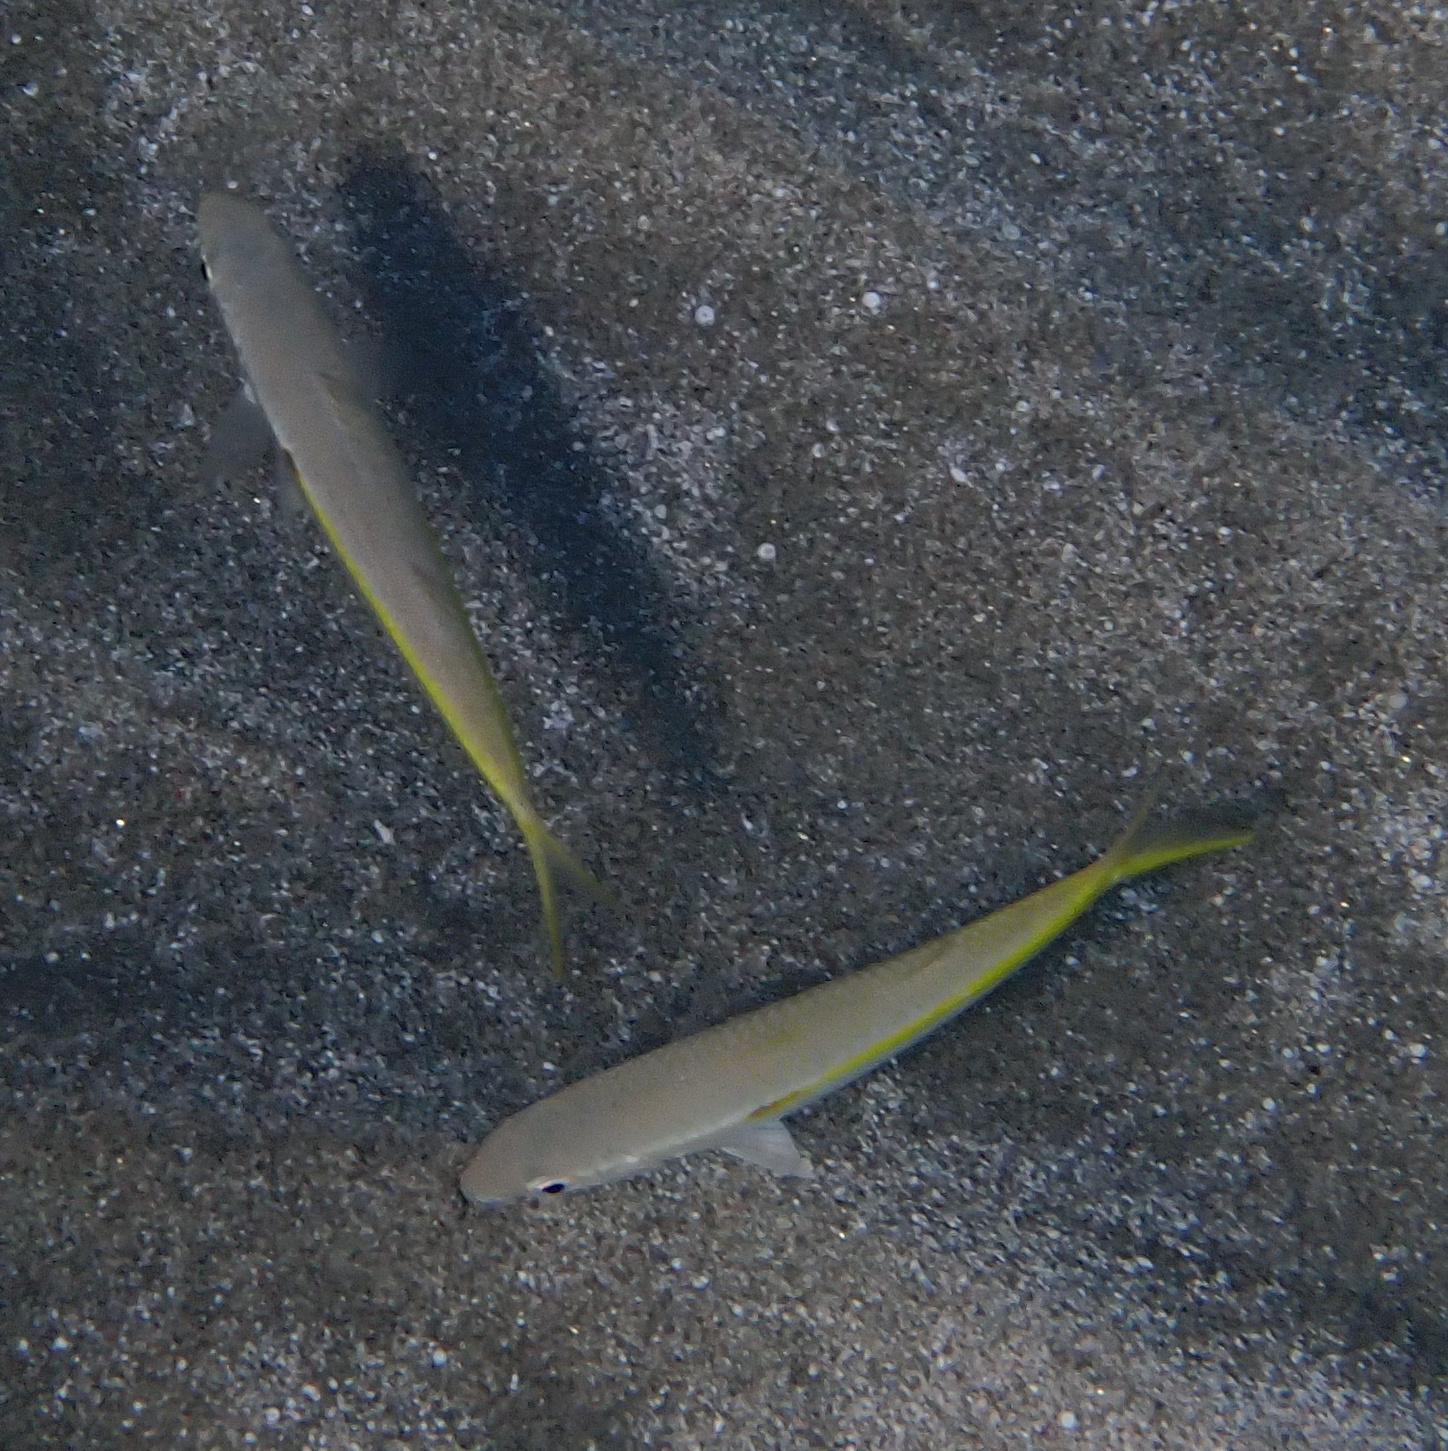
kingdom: Animalia
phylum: Chordata
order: Perciformes
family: Mullidae
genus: Mulloidichthys
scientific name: Mulloidichthys flavolineatus
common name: Yellowstripe goatfish
